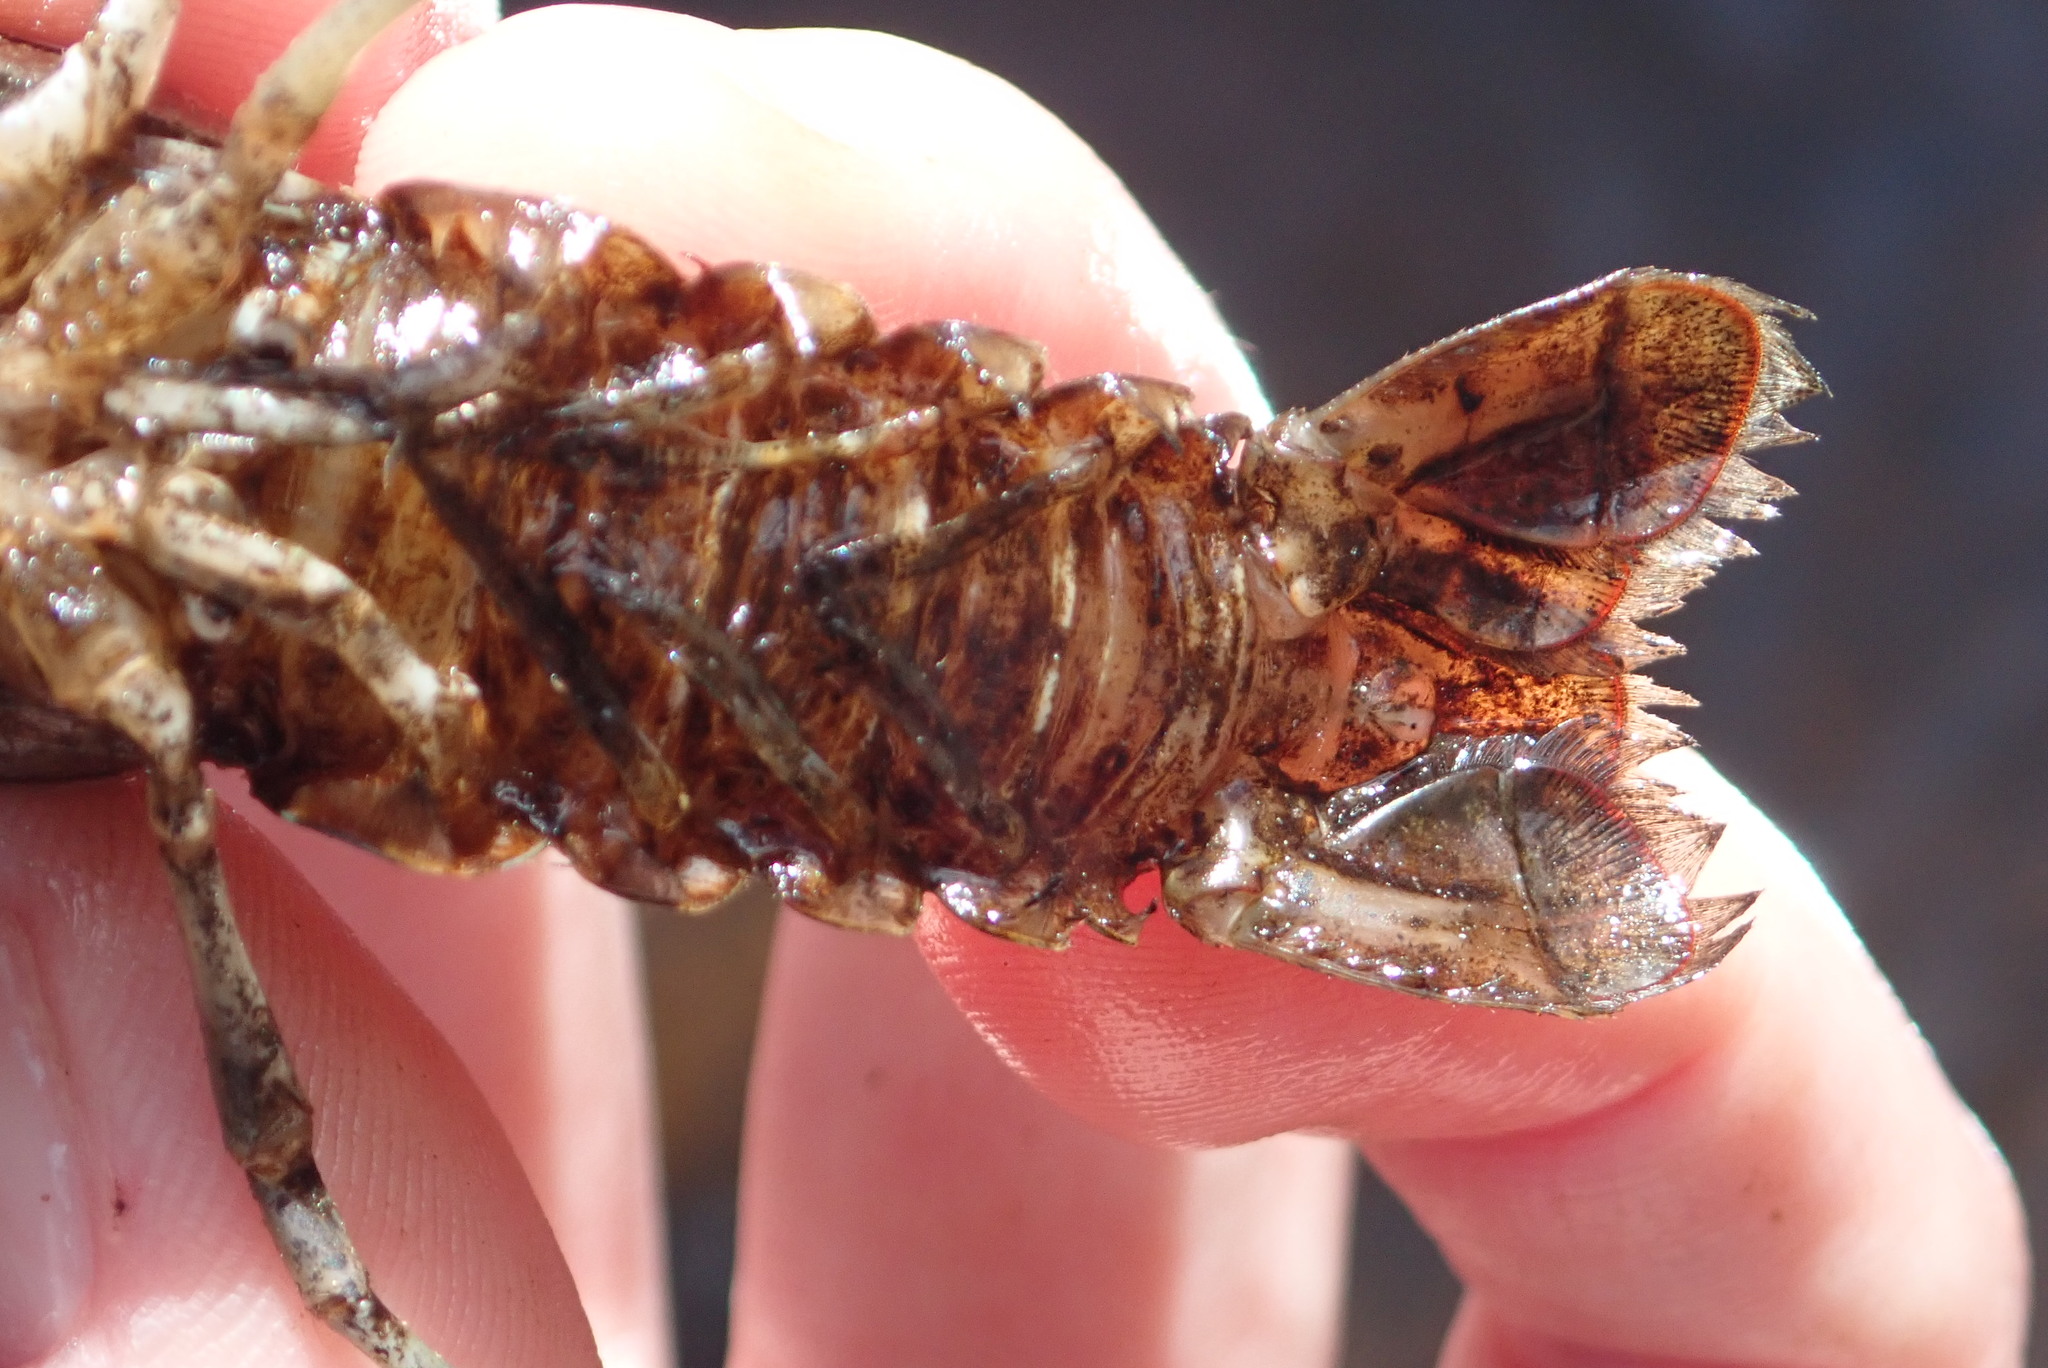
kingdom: Animalia
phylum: Arthropoda
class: Malacostraca
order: Decapoda
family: Cambaridae
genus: Faxonius
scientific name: Faxonius virilis
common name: Virile crayfish
